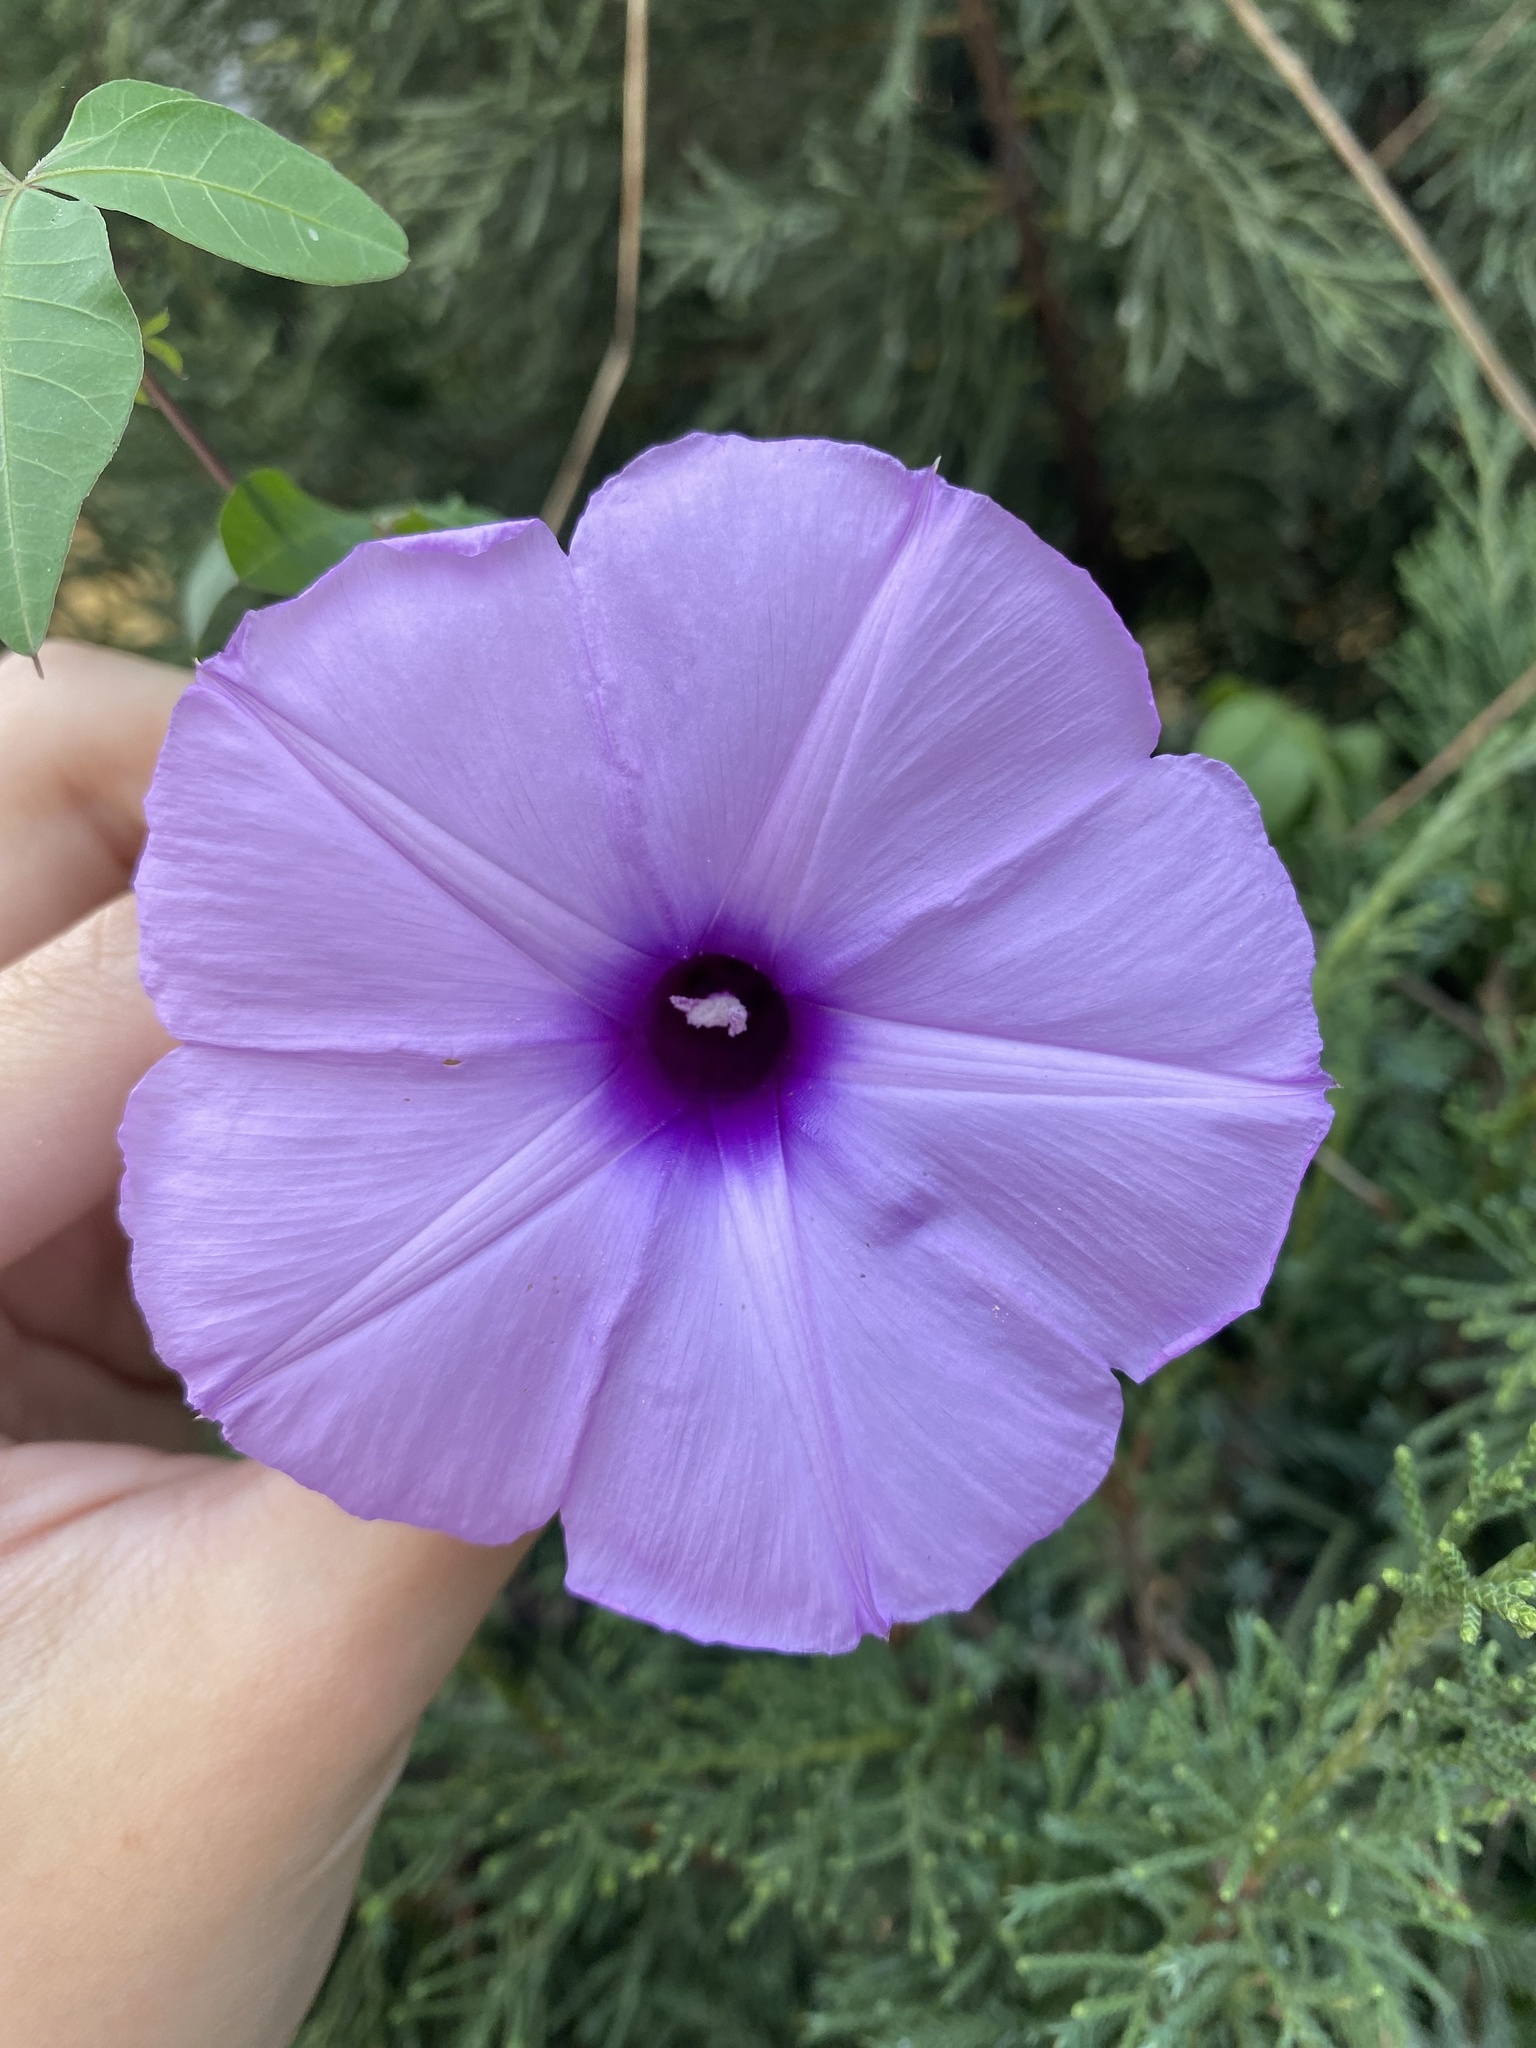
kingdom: Plantae
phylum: Tracheophyta
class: Magnoliopsida
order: Solanales
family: Convolvulaceae
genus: Ipomoea
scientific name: Ipomoea cairica
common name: Mile a minute vine
